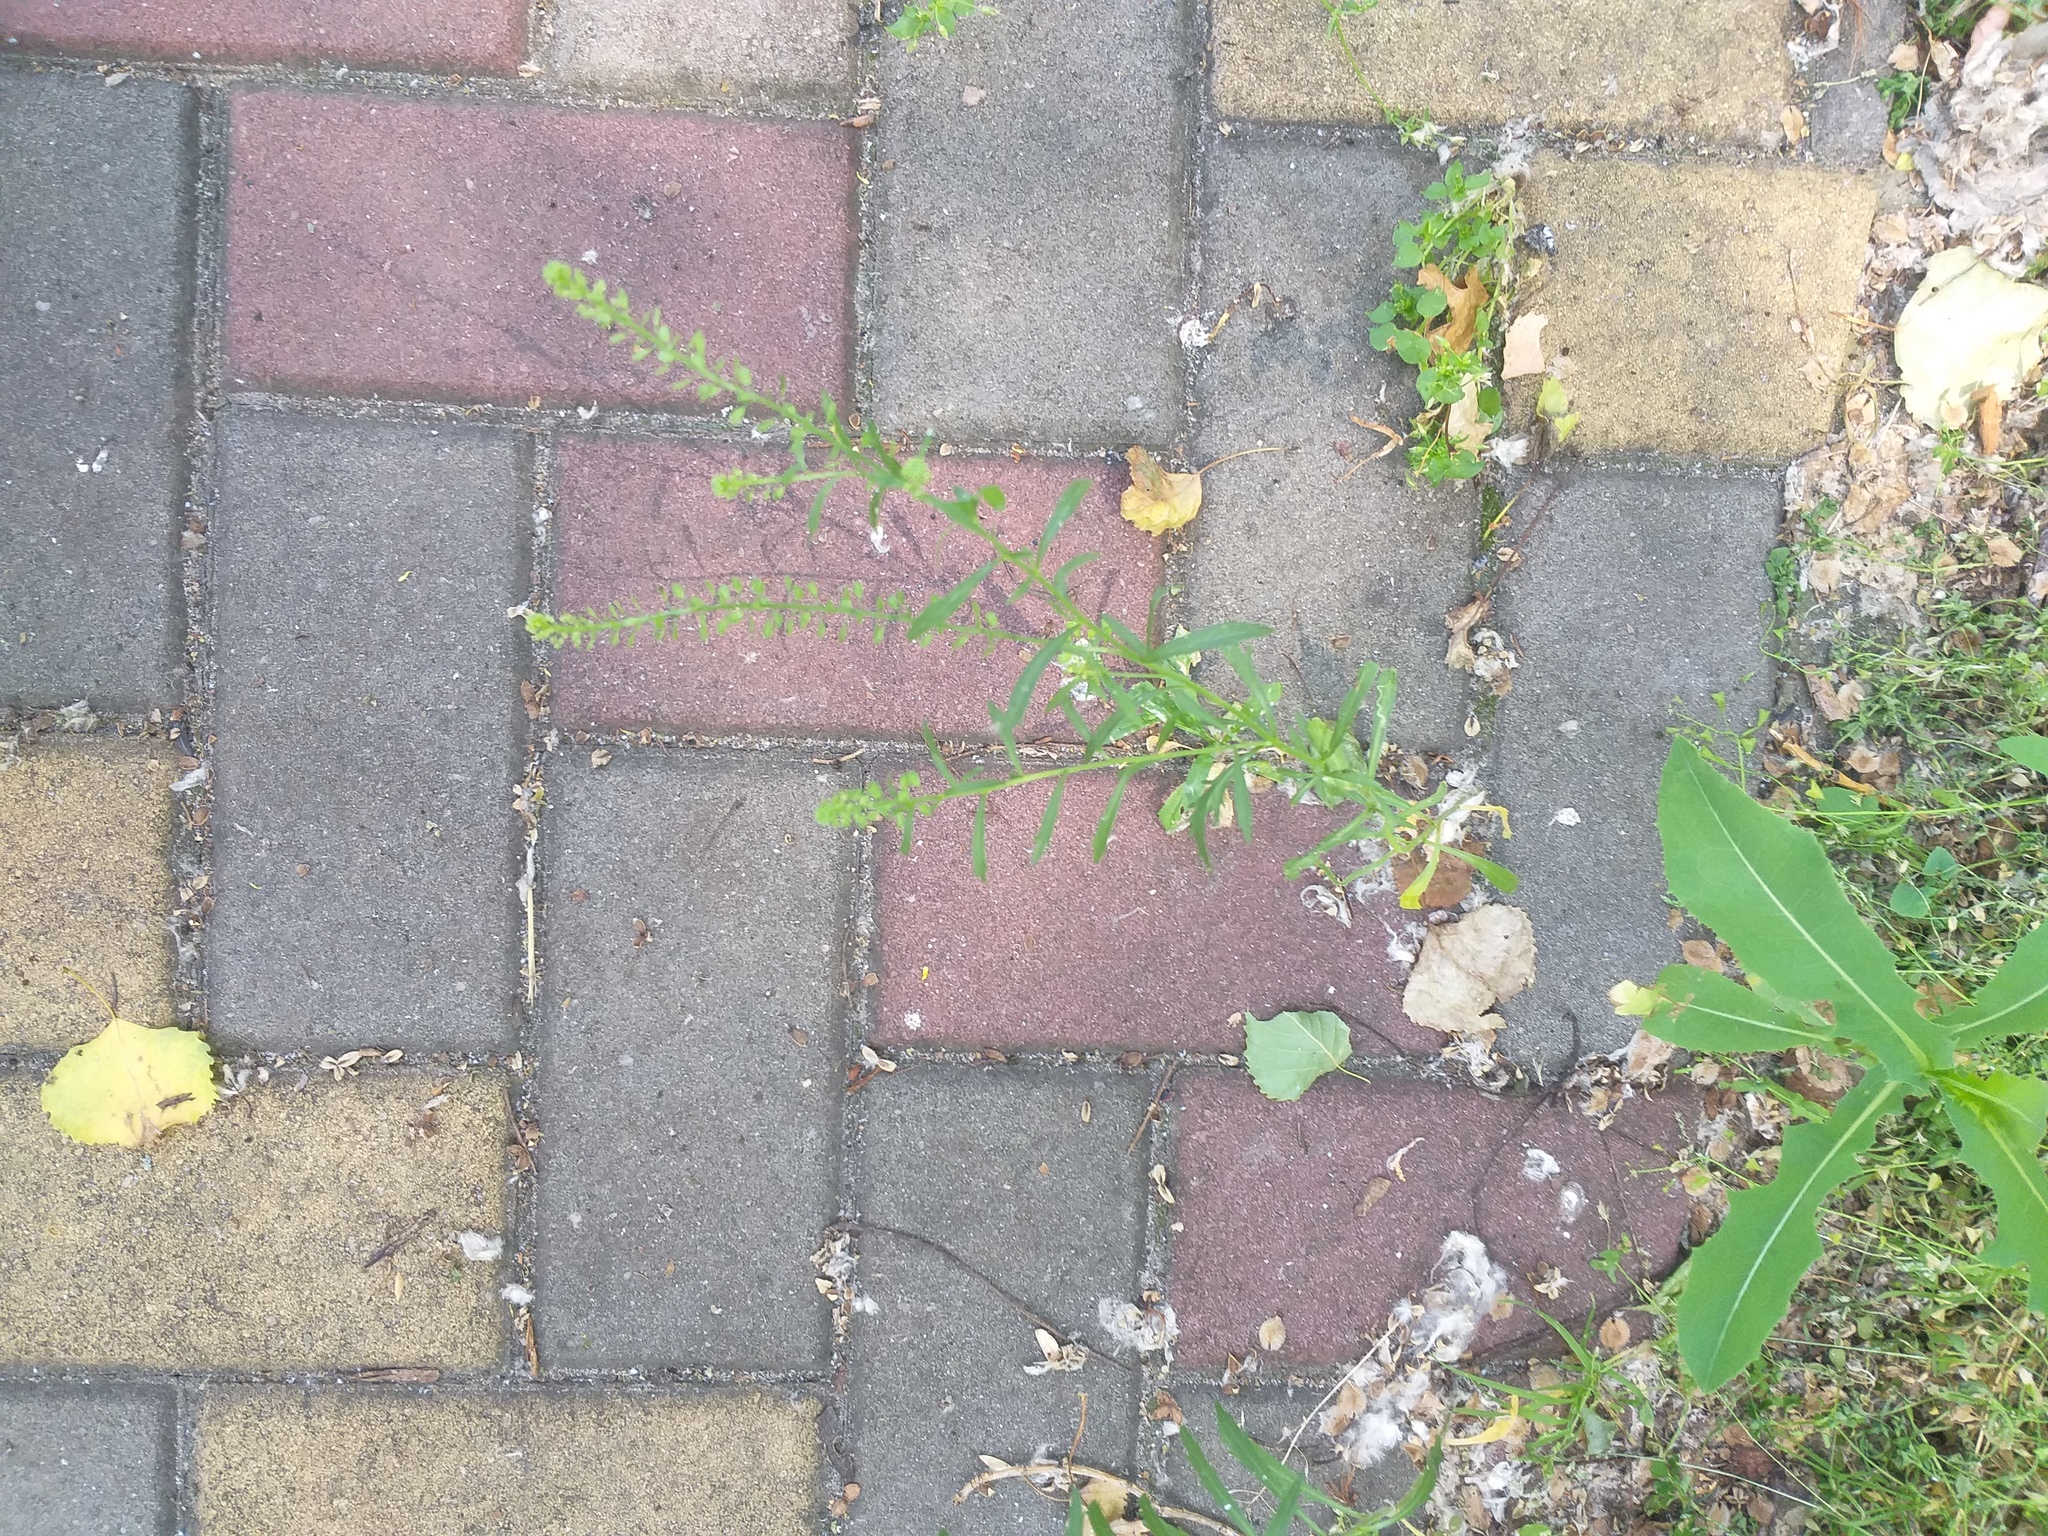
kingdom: Plantae
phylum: Tracheophyta
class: Magnoliopsida
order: Brassicales
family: Brassicaceae
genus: Lepidium
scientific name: Lepidium densiflorum
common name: Miner's pepperwort
